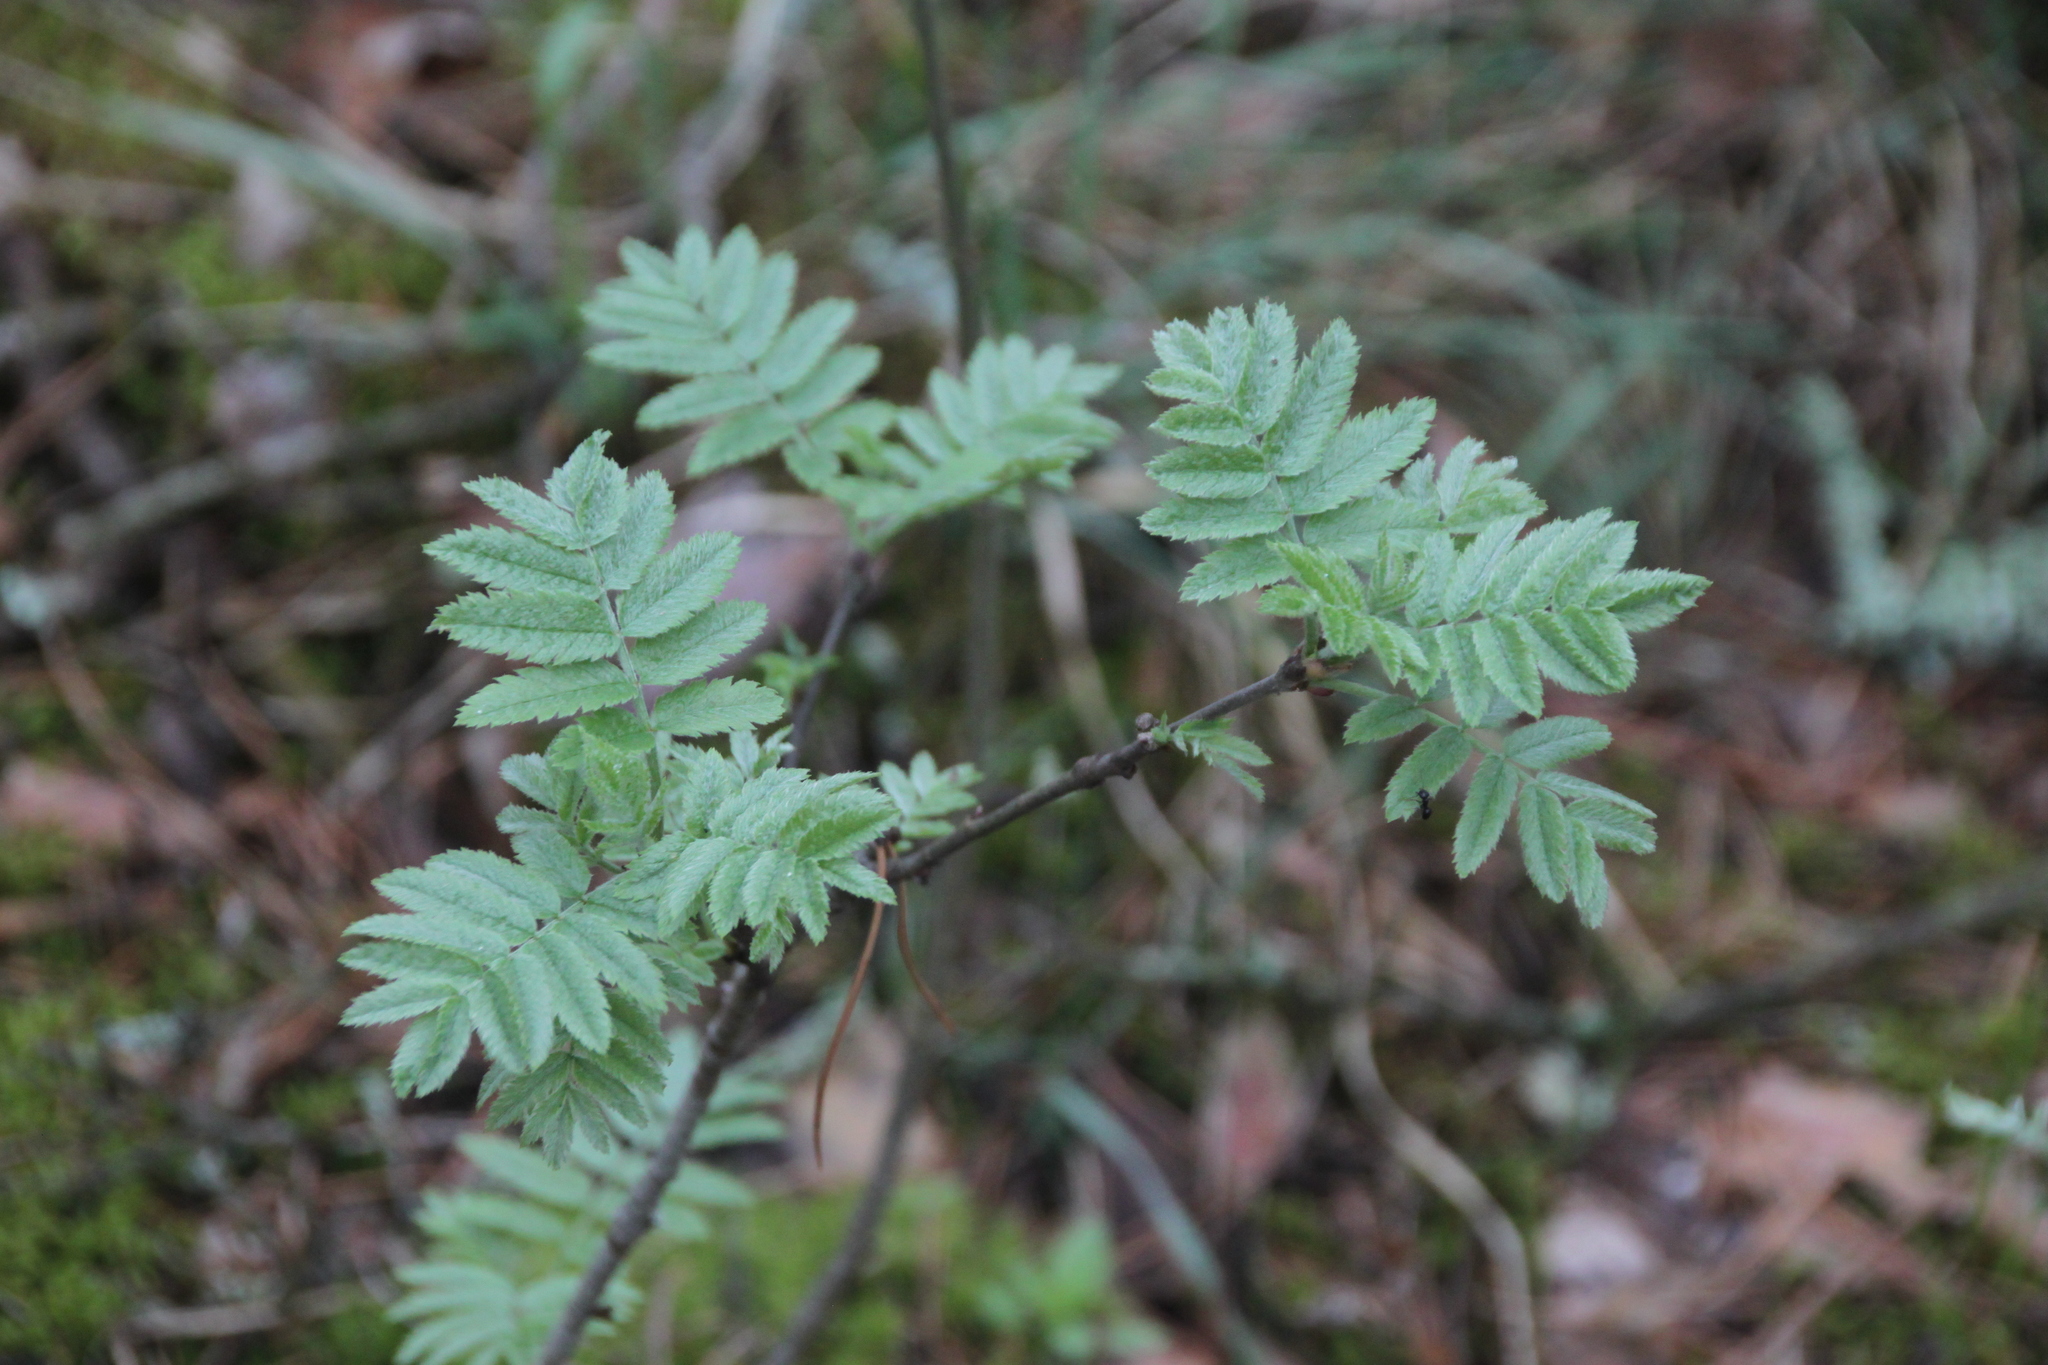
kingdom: Plantae
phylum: Tracheophyta
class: Magnoliopsida
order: Rosales
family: Rosaceae
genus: Sorbus
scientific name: Sorbus aucuparia
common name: Rowan
